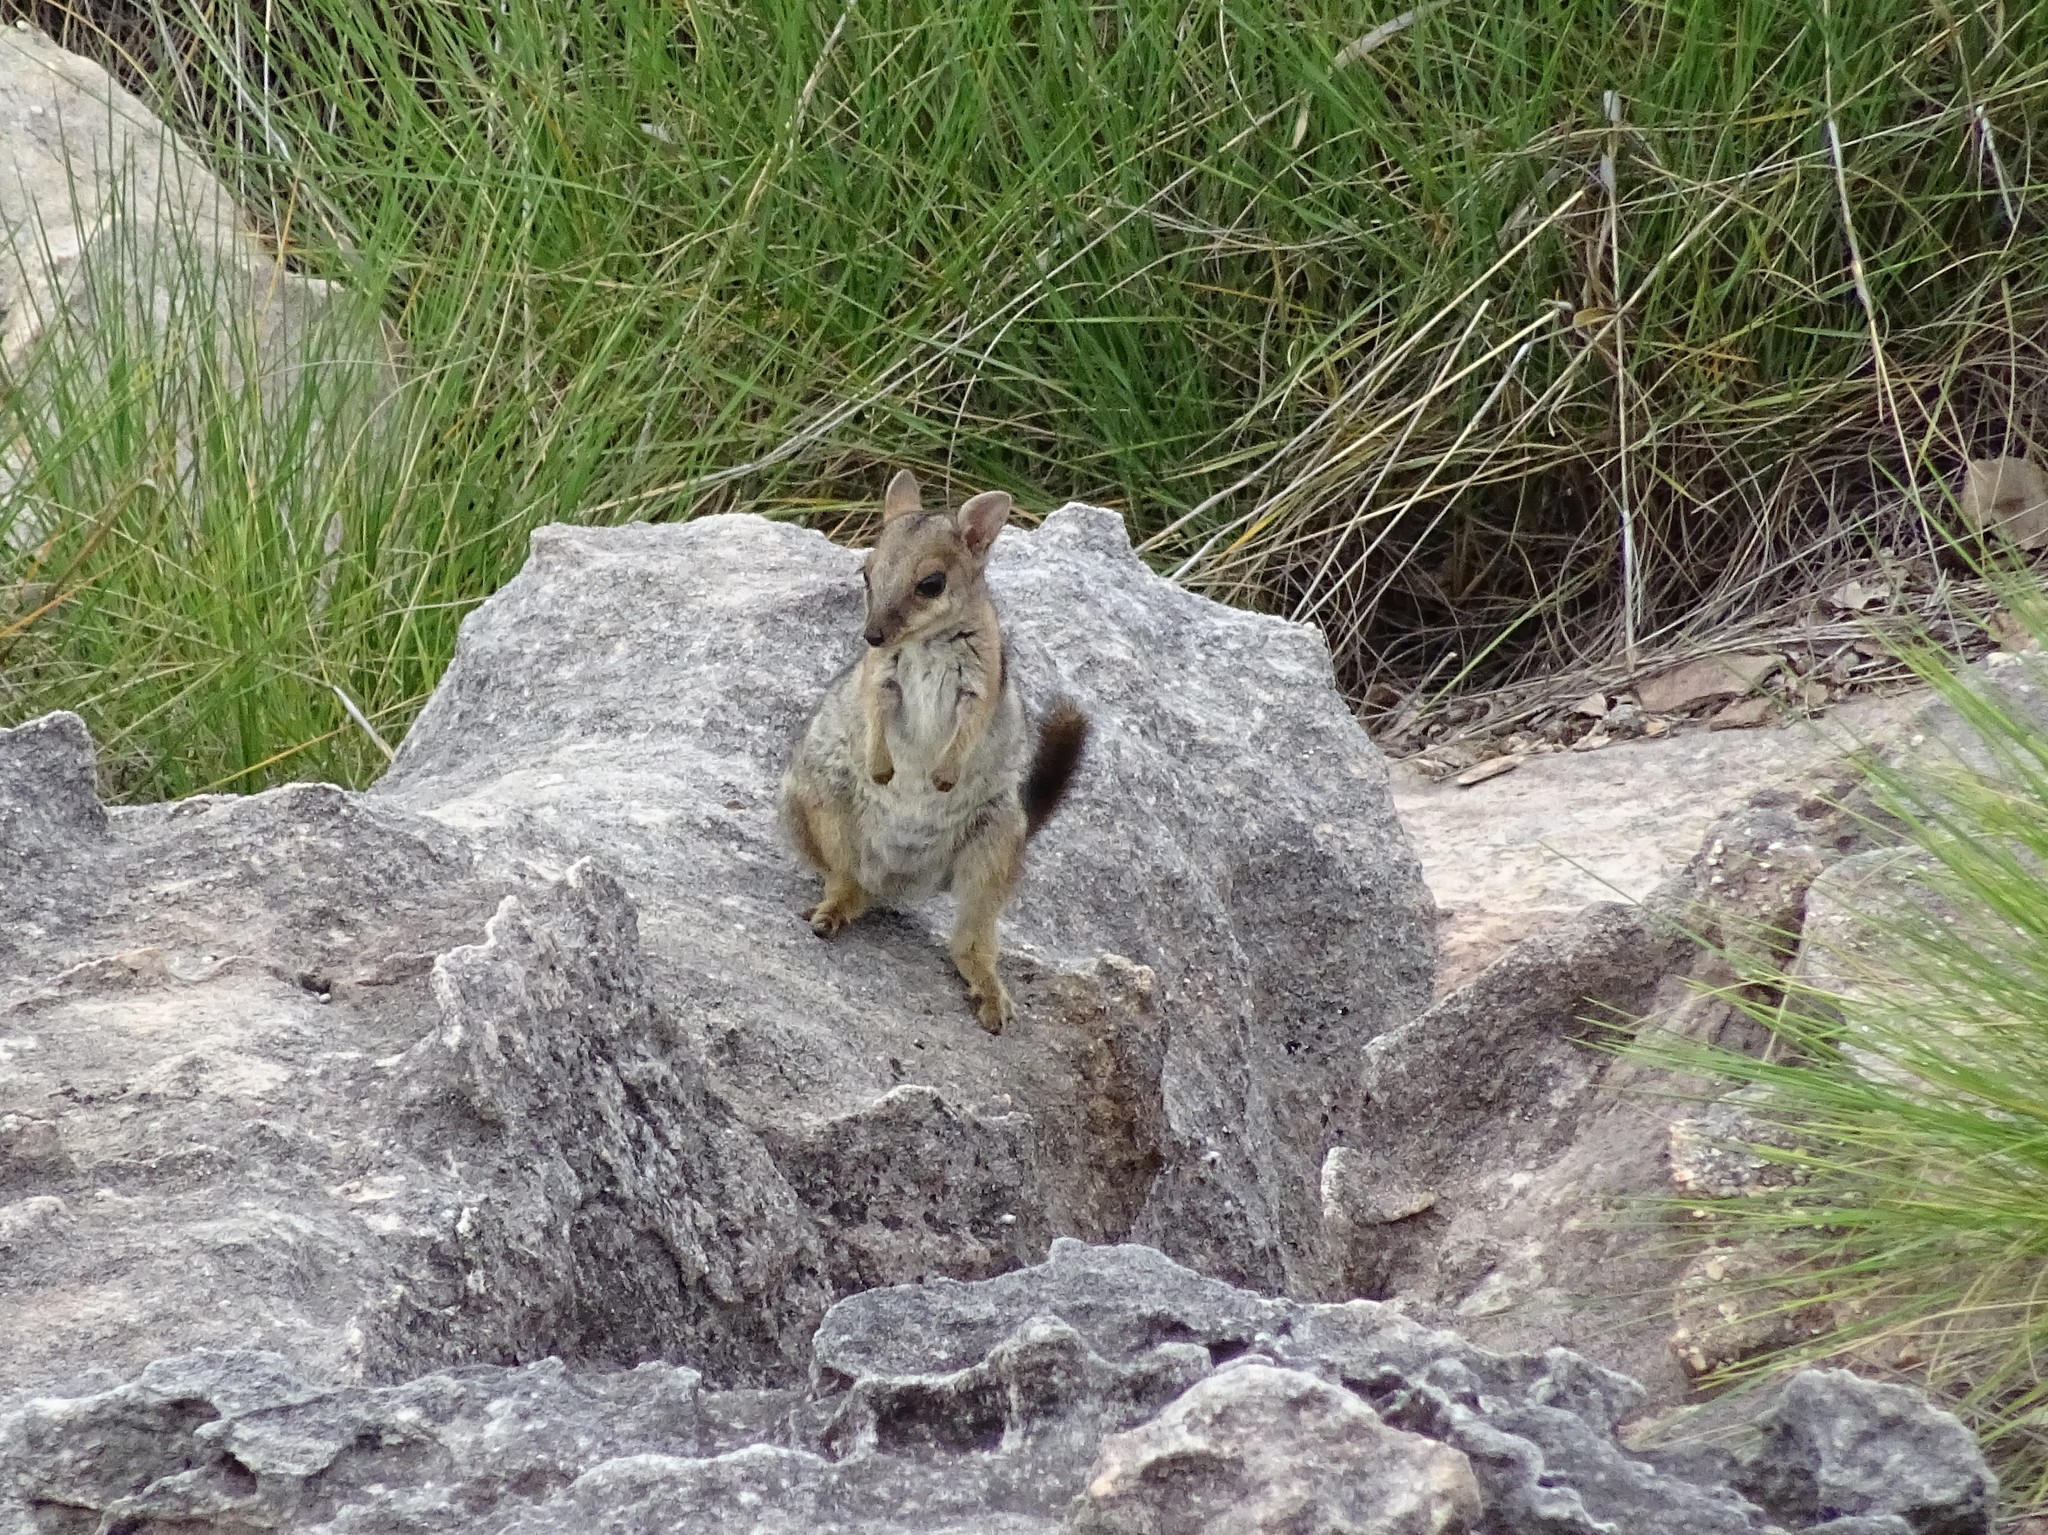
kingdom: Animalia
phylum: Chordata
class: Mammalia
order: Diprotodontia
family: Macropodidae
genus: Petrogale
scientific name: Petrogale wilkinsi
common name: Wilkins’s rock wallaby
